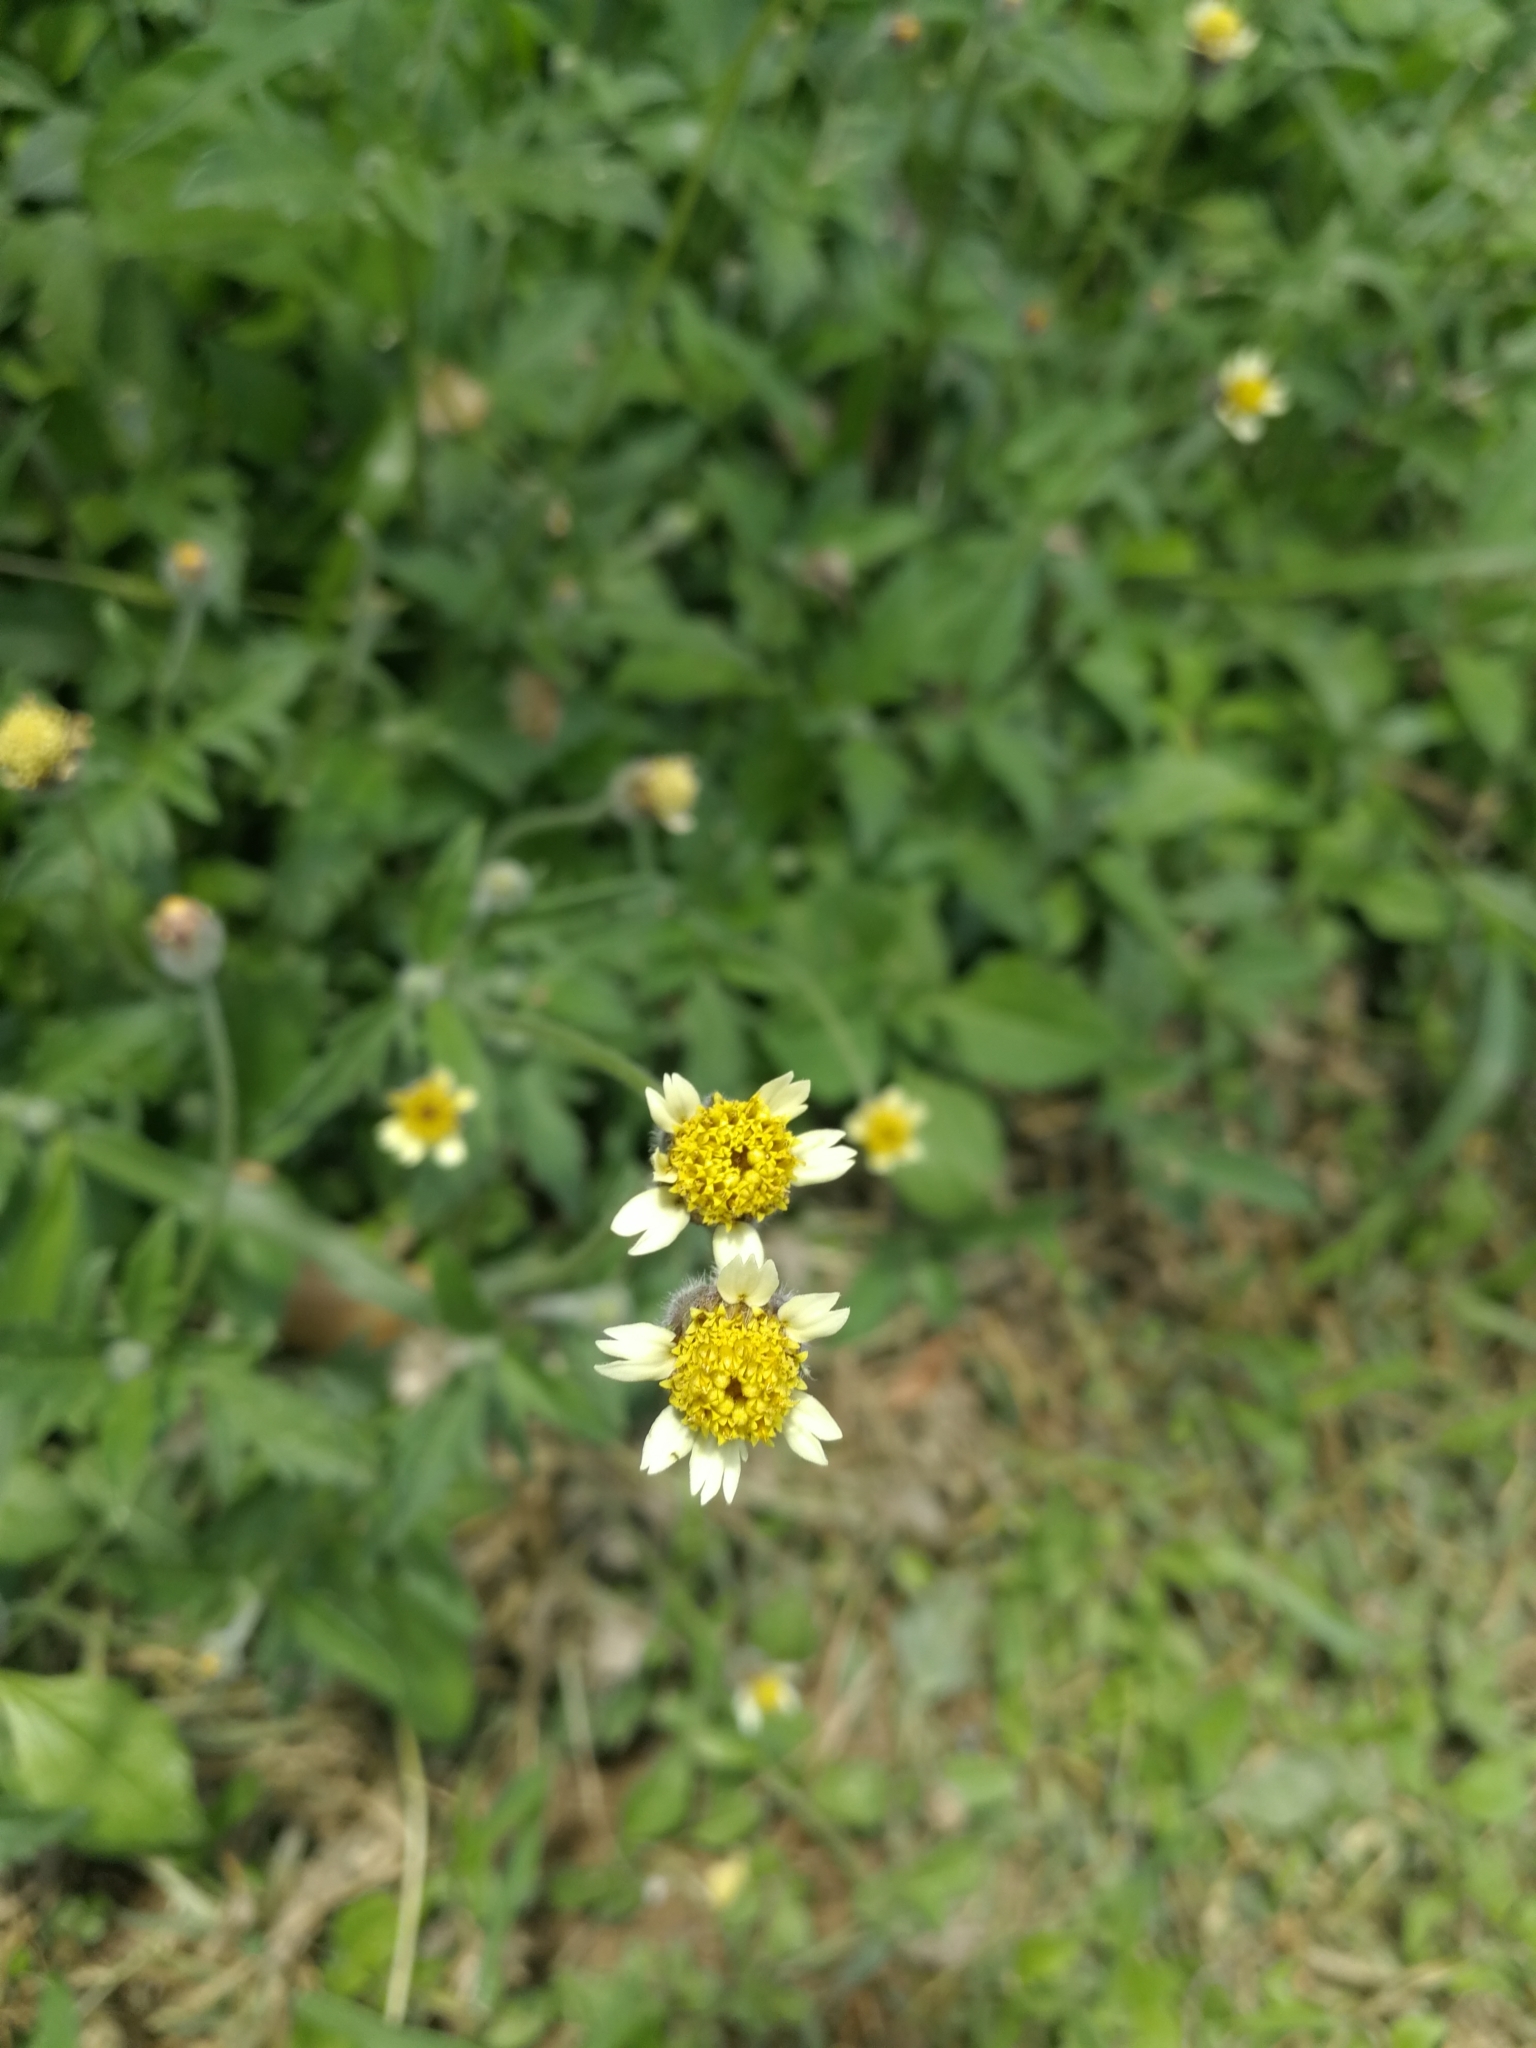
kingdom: Plantae
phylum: Tracheophyta
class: Magnoliopsida
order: Asterales
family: Asteraceae
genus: Tridax
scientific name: Tridax procumbens
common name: Coatbuttons
